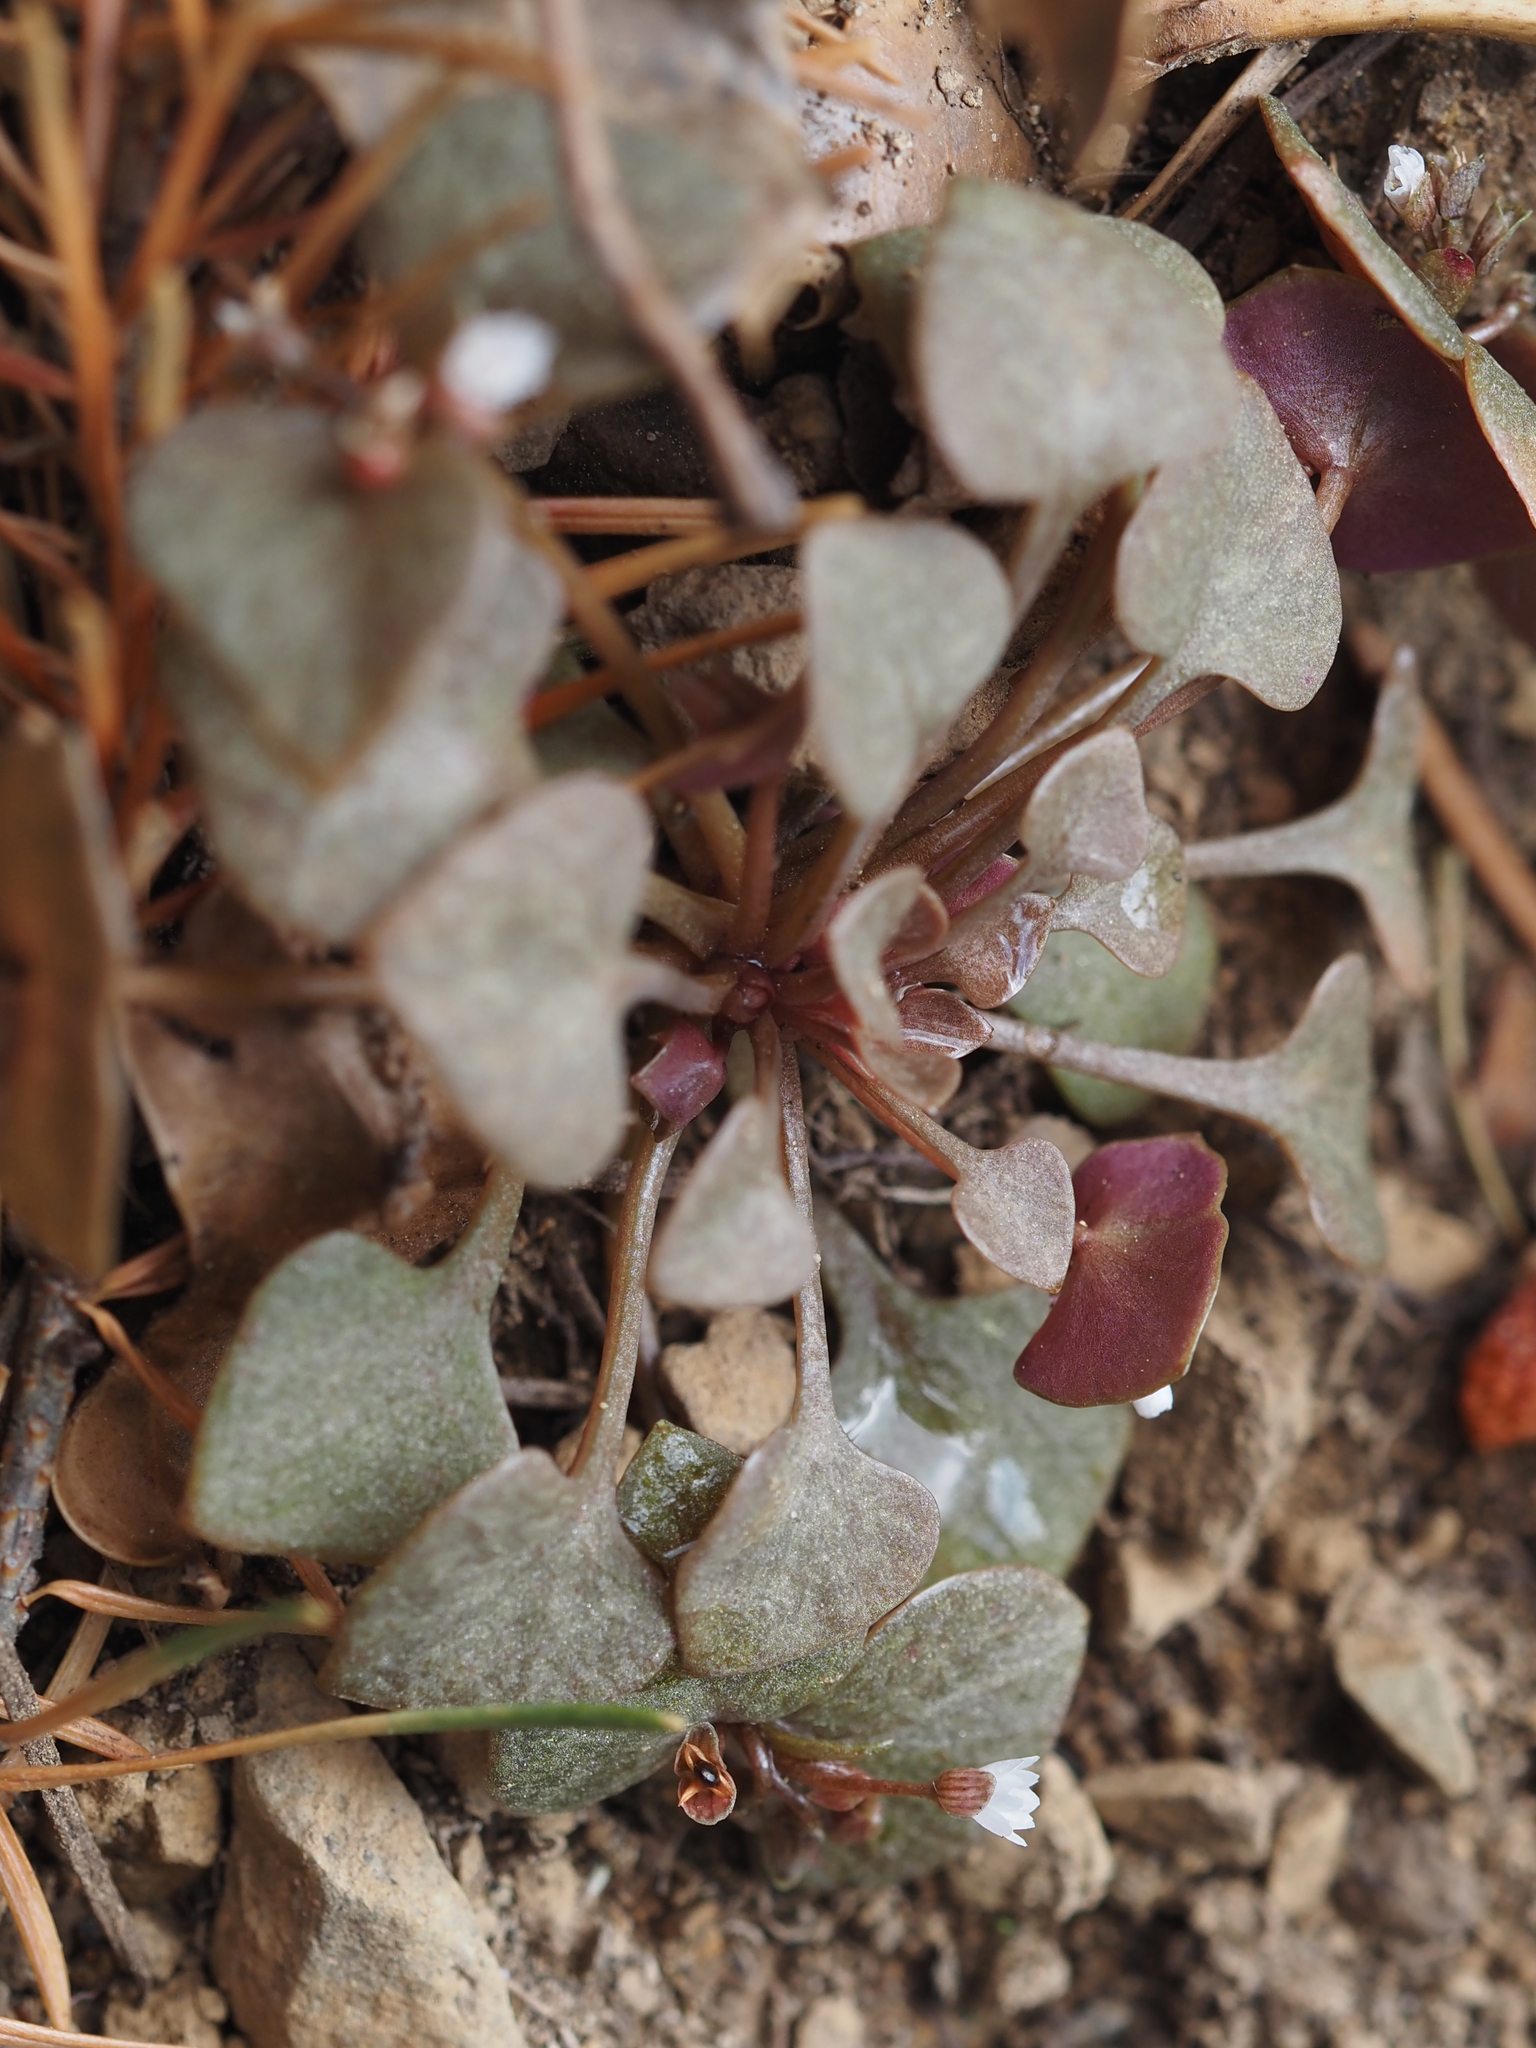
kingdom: Plantae
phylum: Tracheophyta
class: Magnoliopsida
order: Caryophyllales
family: Montiaceae
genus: Claytonia
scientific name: Claytonia rubra
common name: Erubescent miner's-lettuce
